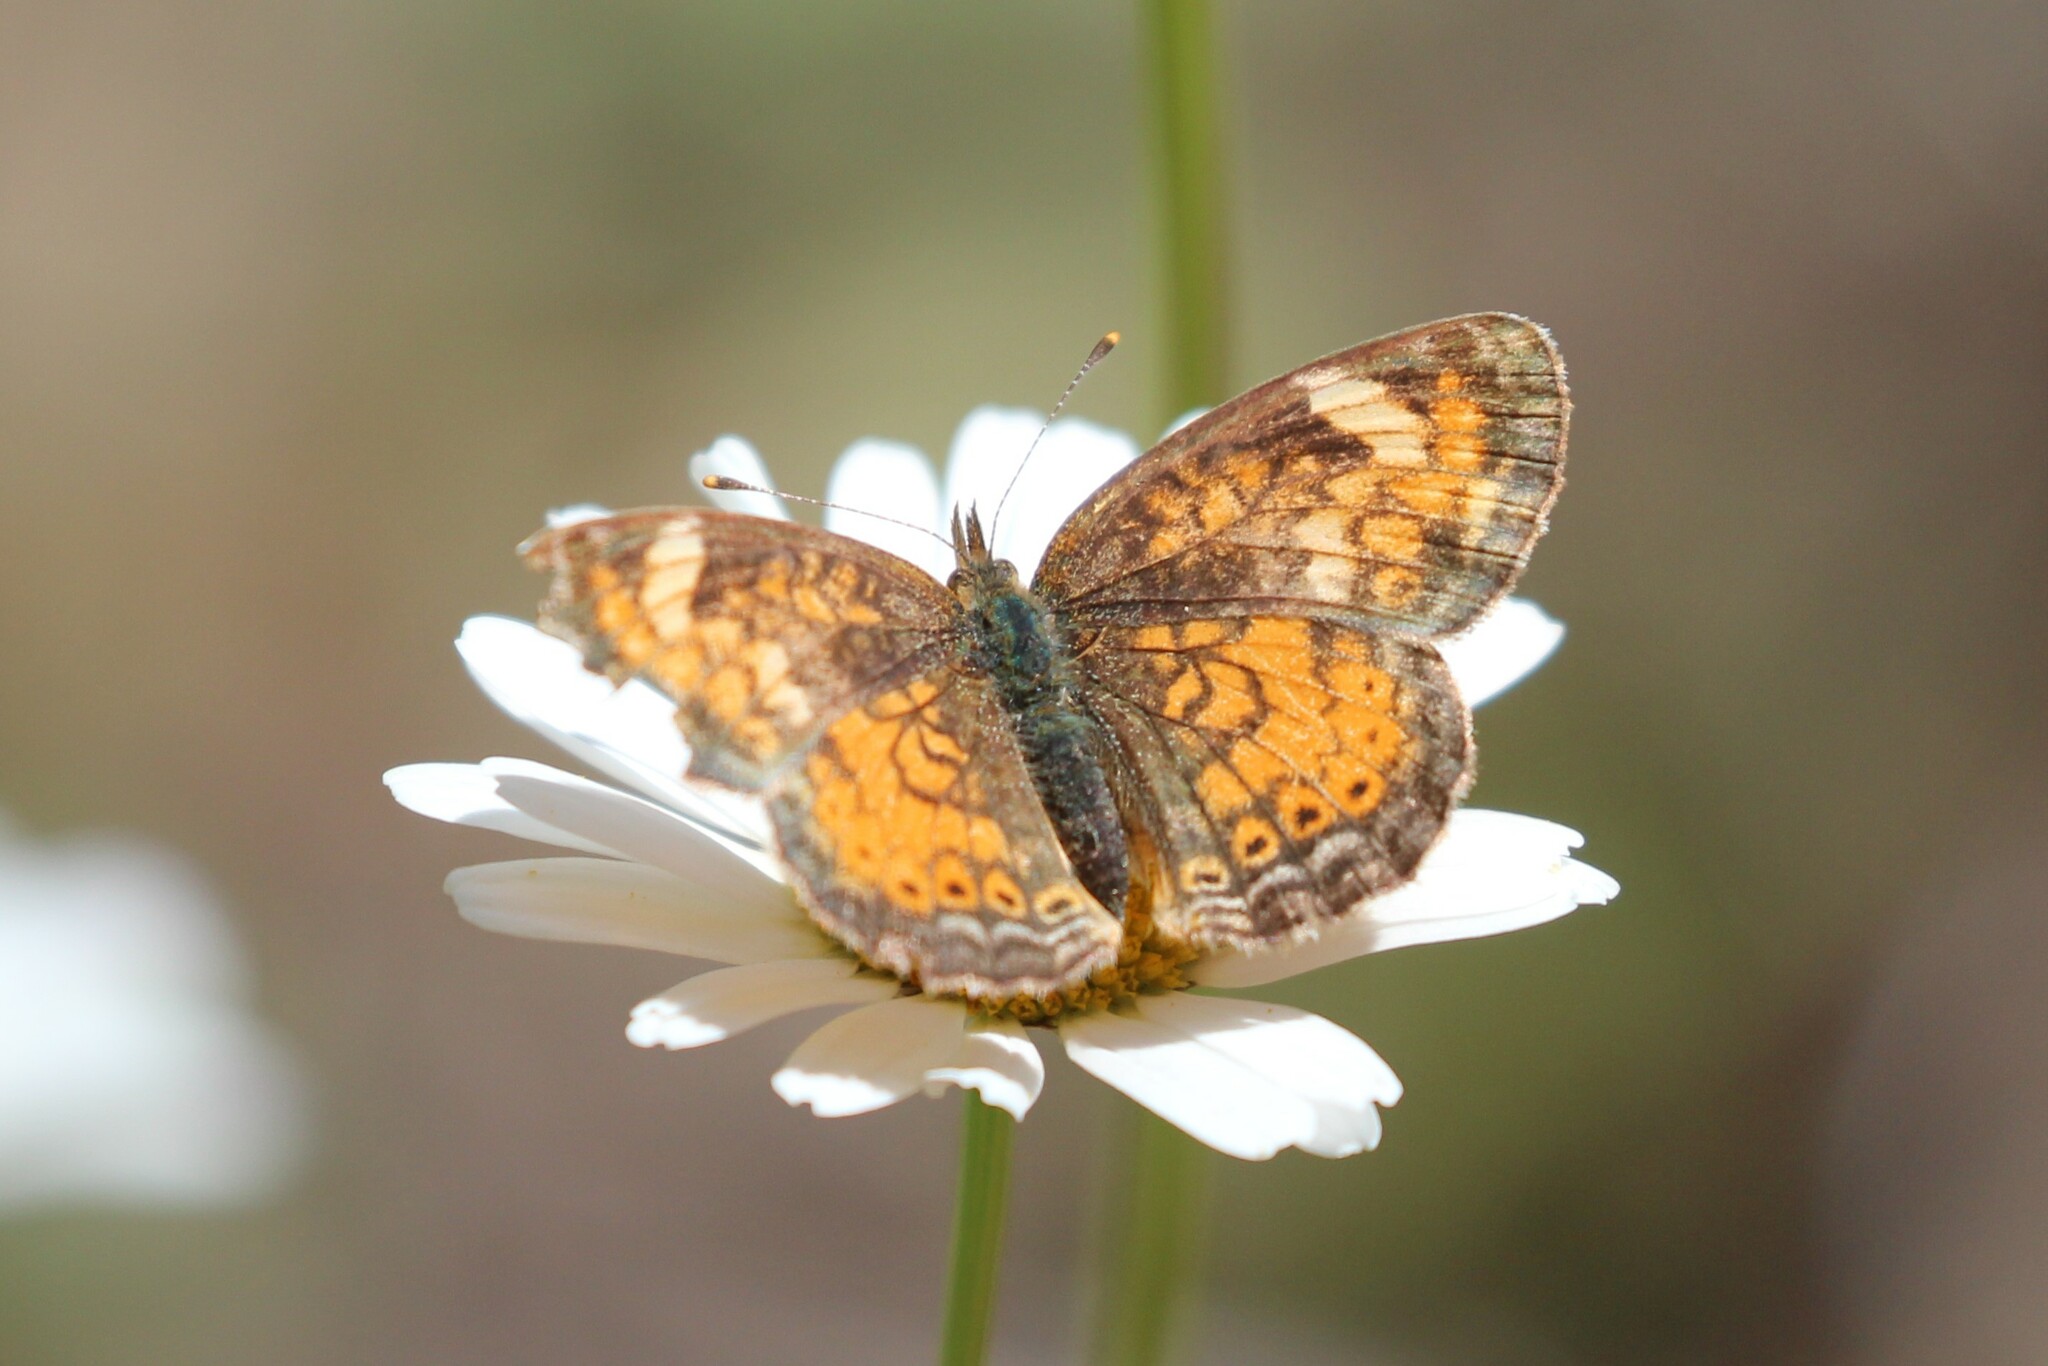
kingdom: Animalia
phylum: Arthropoda
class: Insecta
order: Lepidoptera
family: Nymphalidae
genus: Phyciodes
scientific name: Phyciodes tharos
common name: Pearl crescent
